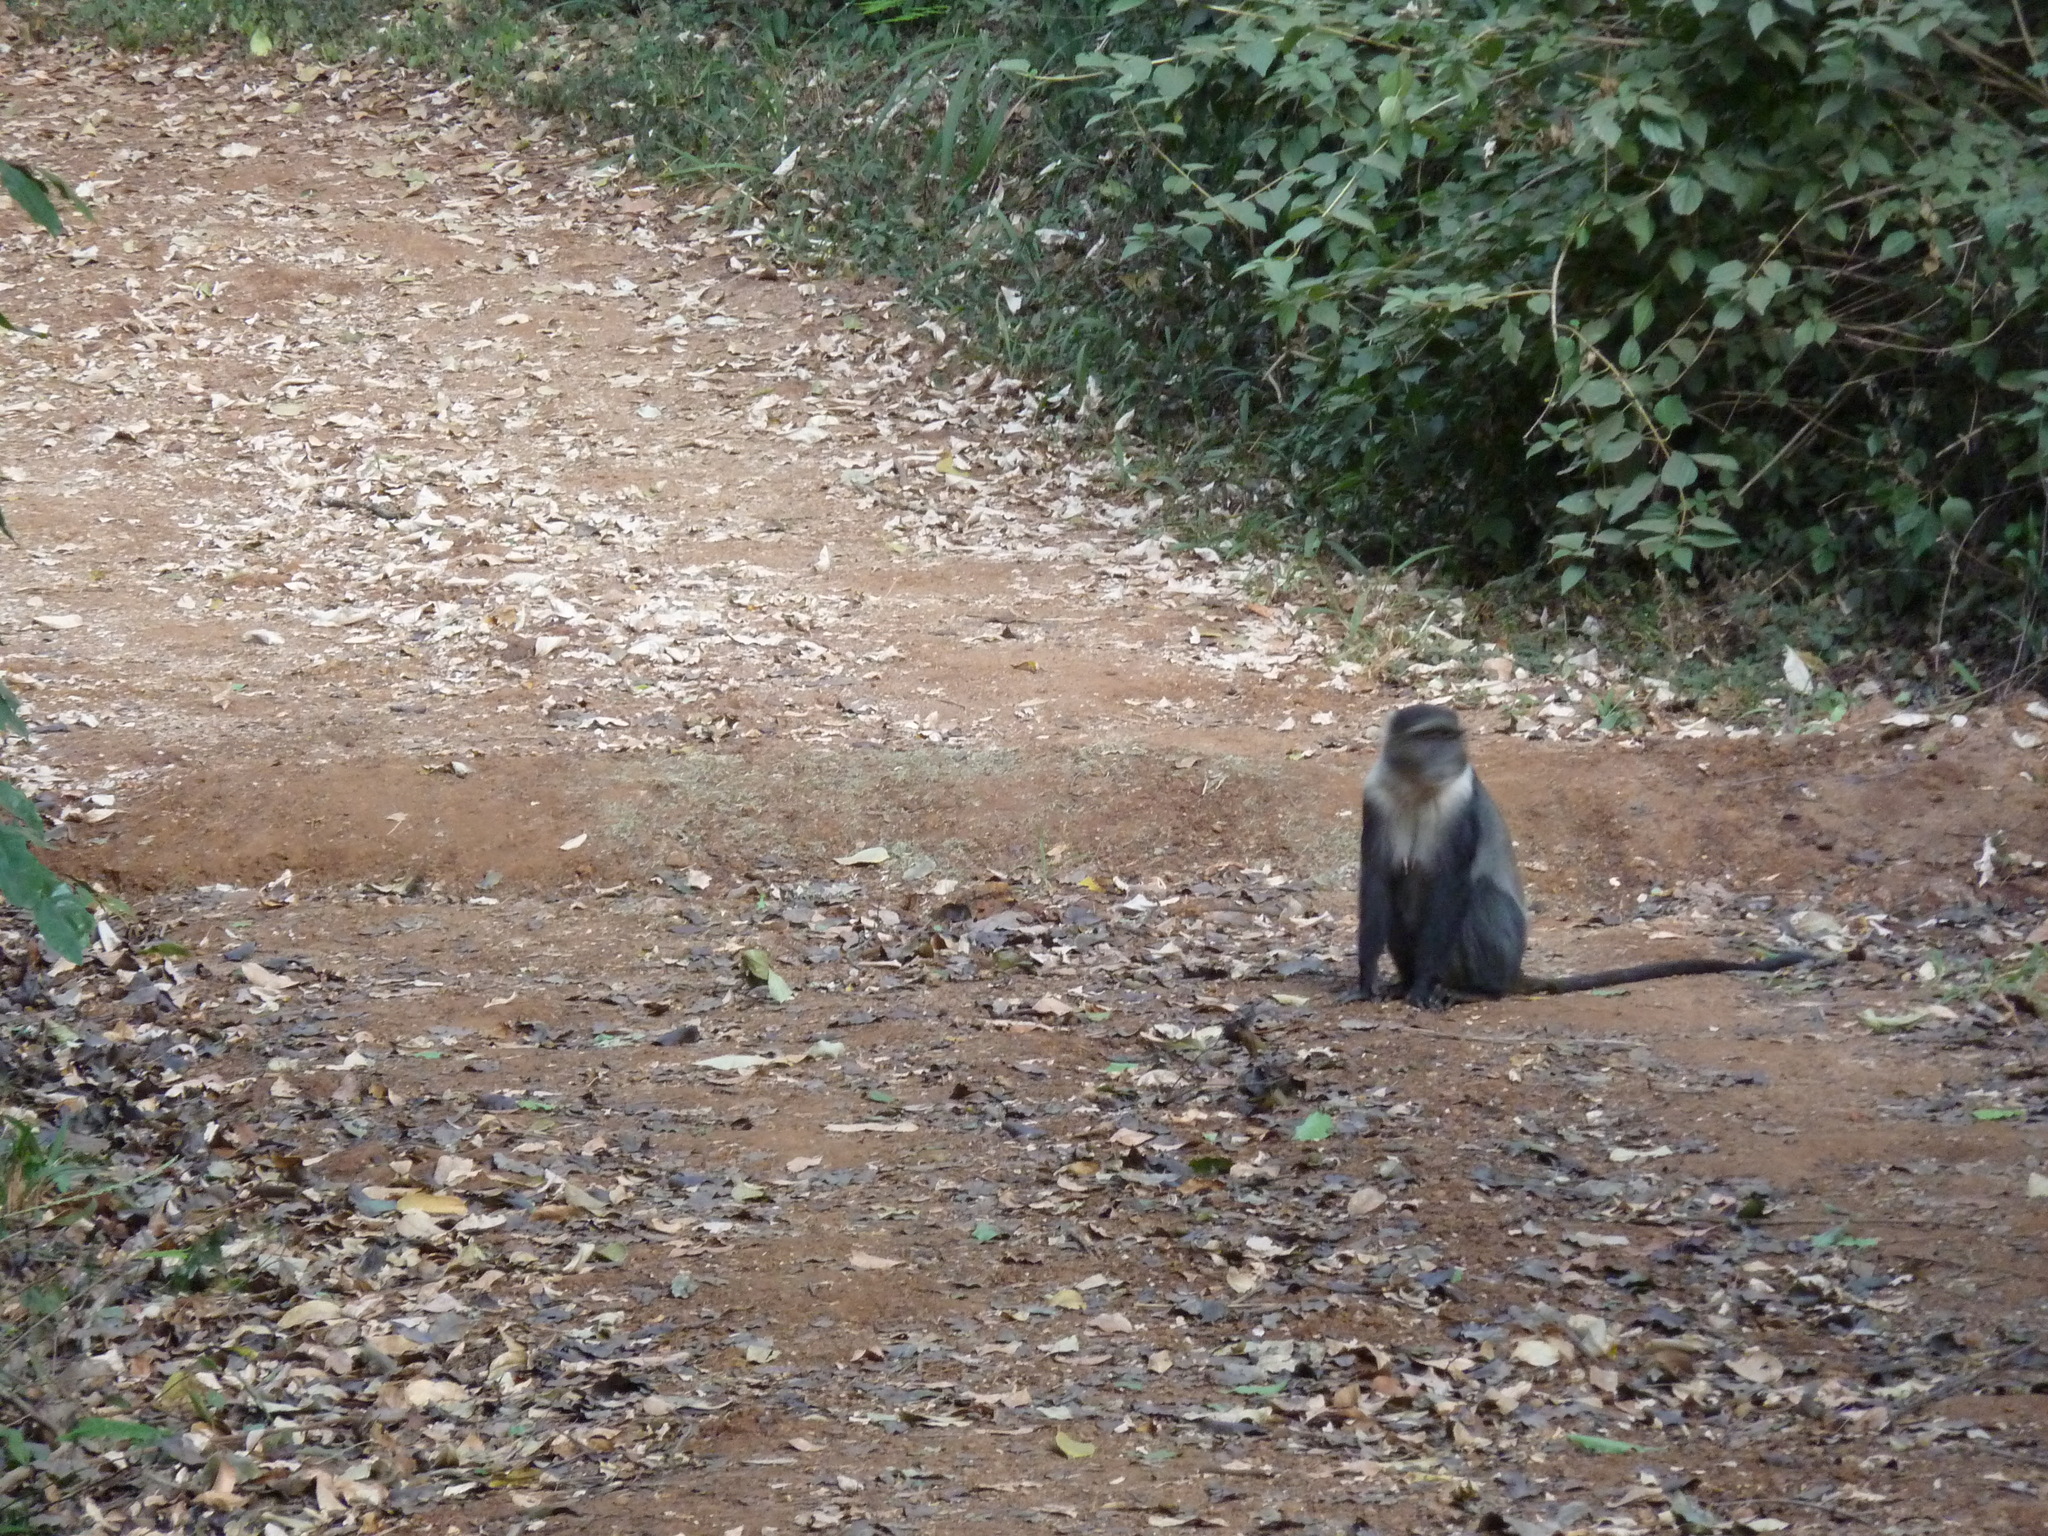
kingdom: Animalia
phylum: Chordata
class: Mammalia
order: Primates
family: Cercopithecidae
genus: Cercopithecus
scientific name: Cercopithecus mitis
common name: Blue monkey
